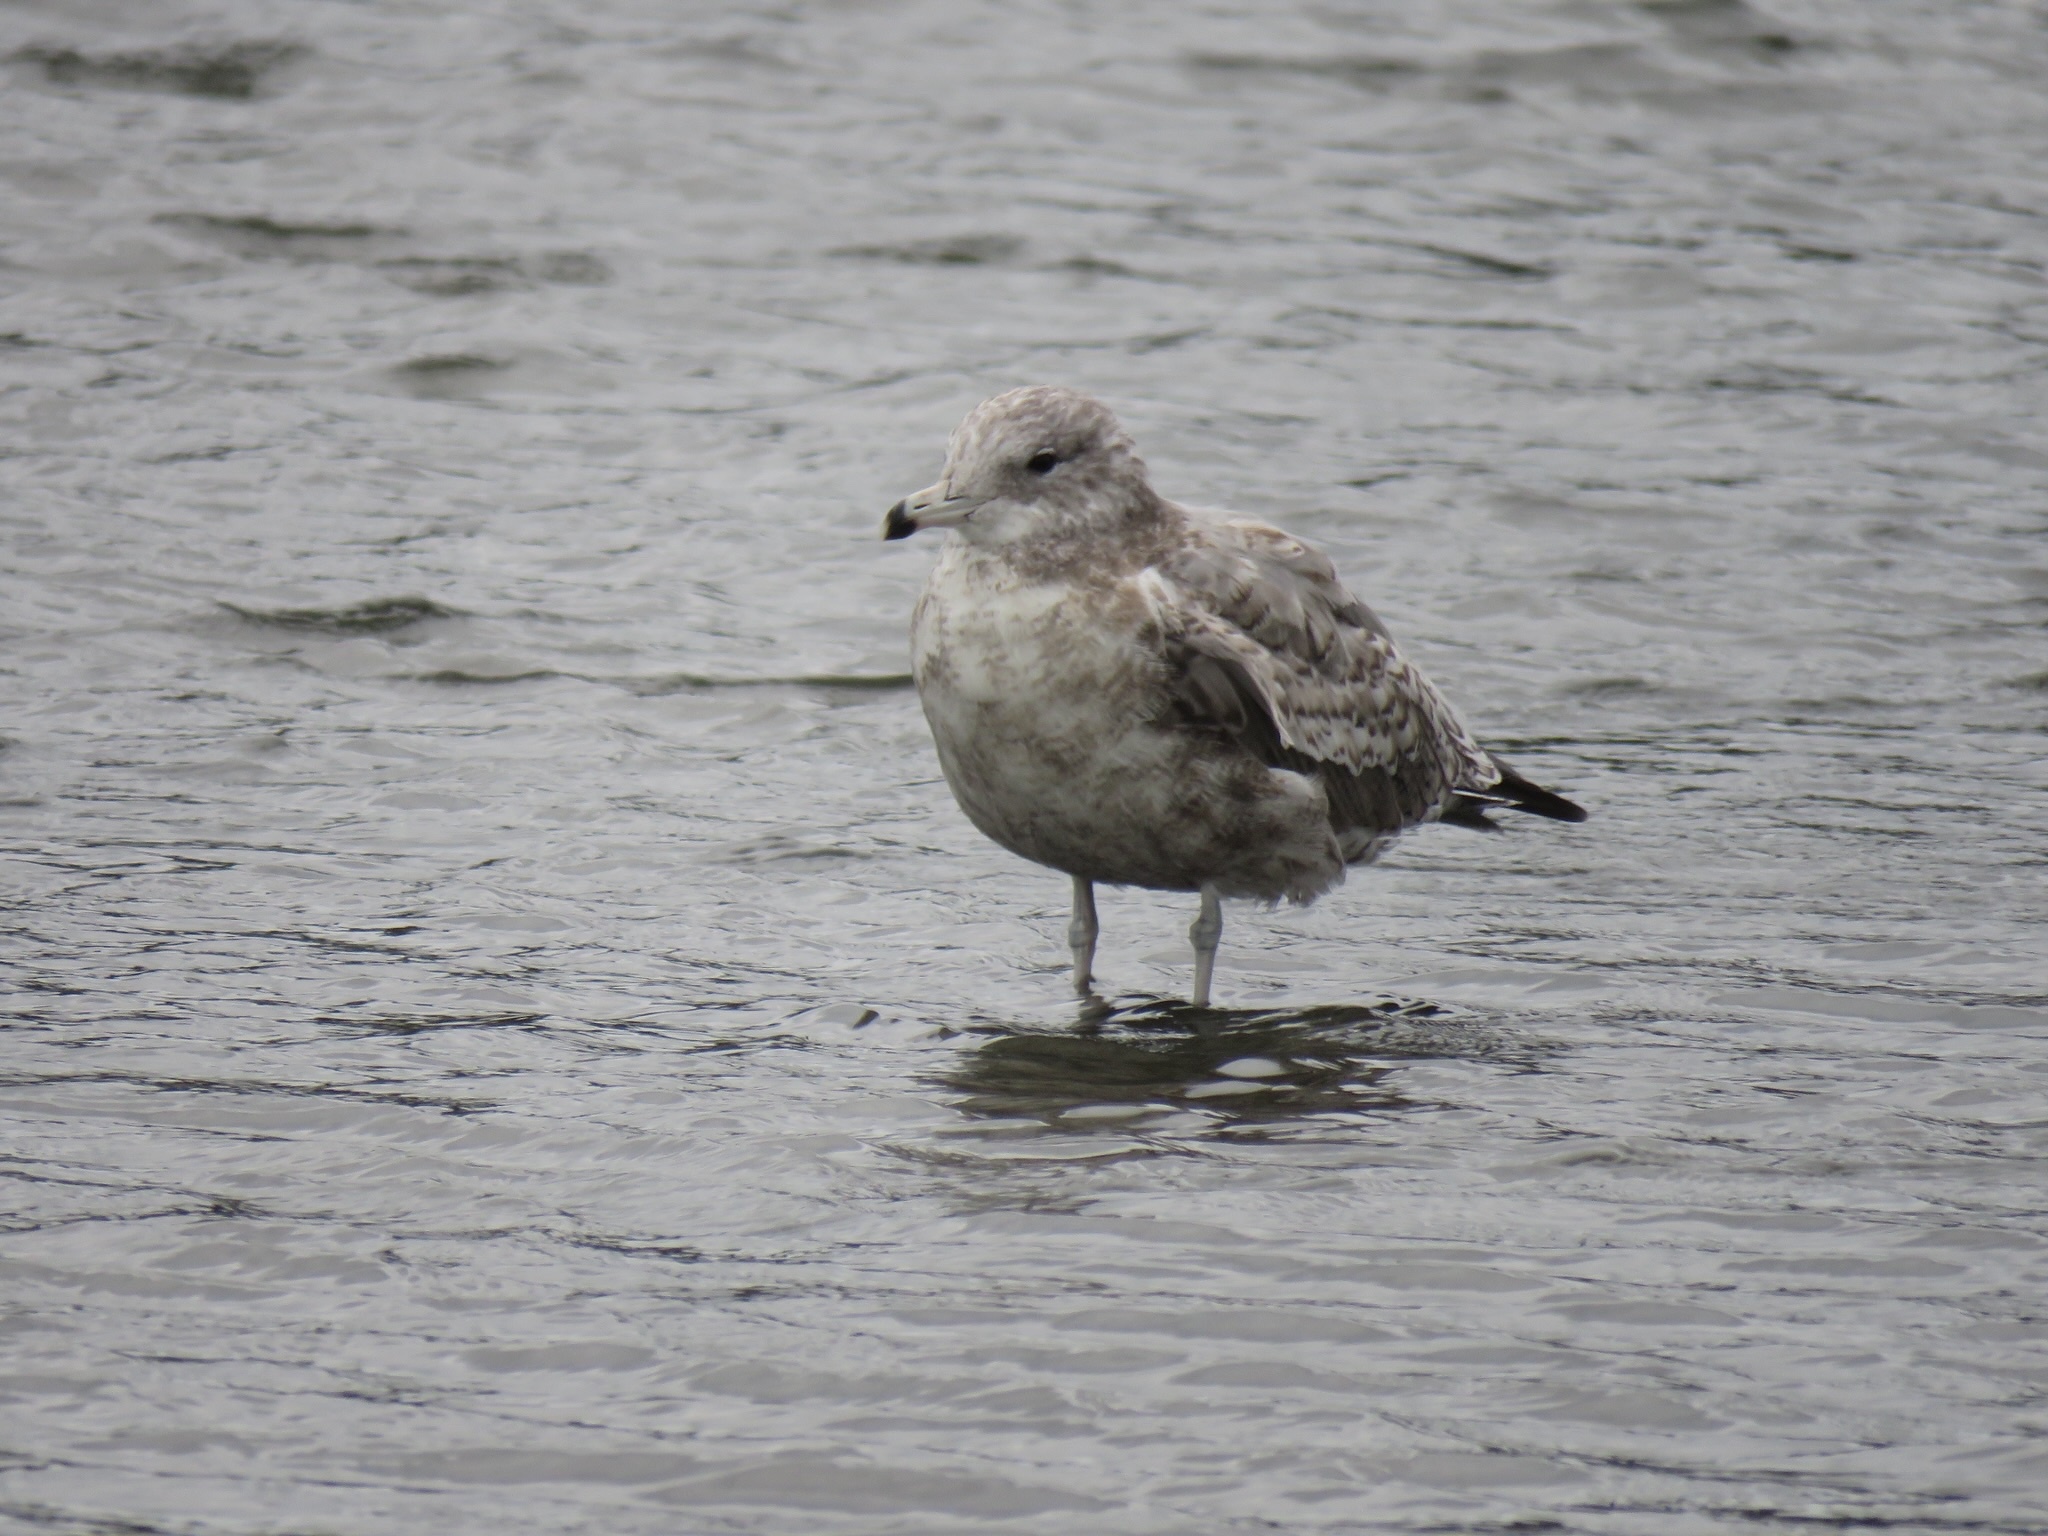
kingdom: Animalia
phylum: Chordata
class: Aves
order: Charadriiformes
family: Laridae
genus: Larus
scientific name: Larus californicus
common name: California gull
